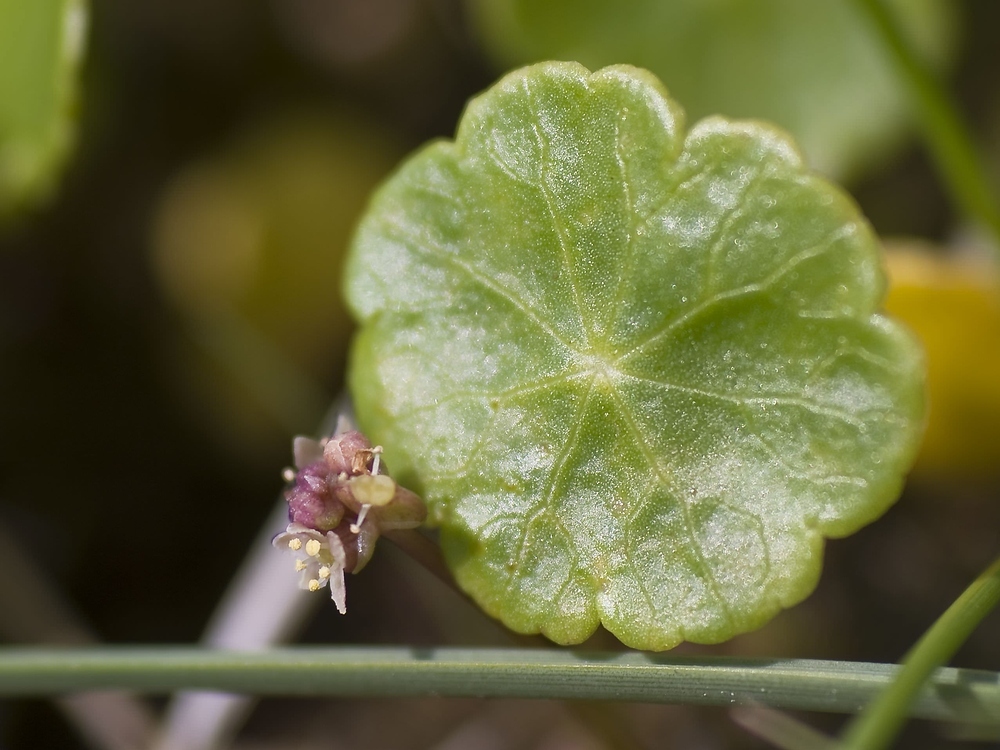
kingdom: Plantae
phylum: Tracheophyta
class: Magnoliopsida
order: Apiales
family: Araliaceae
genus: Hydrocotyle
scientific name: Hydrocotyle vulgaris
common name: Marsh pennywort
